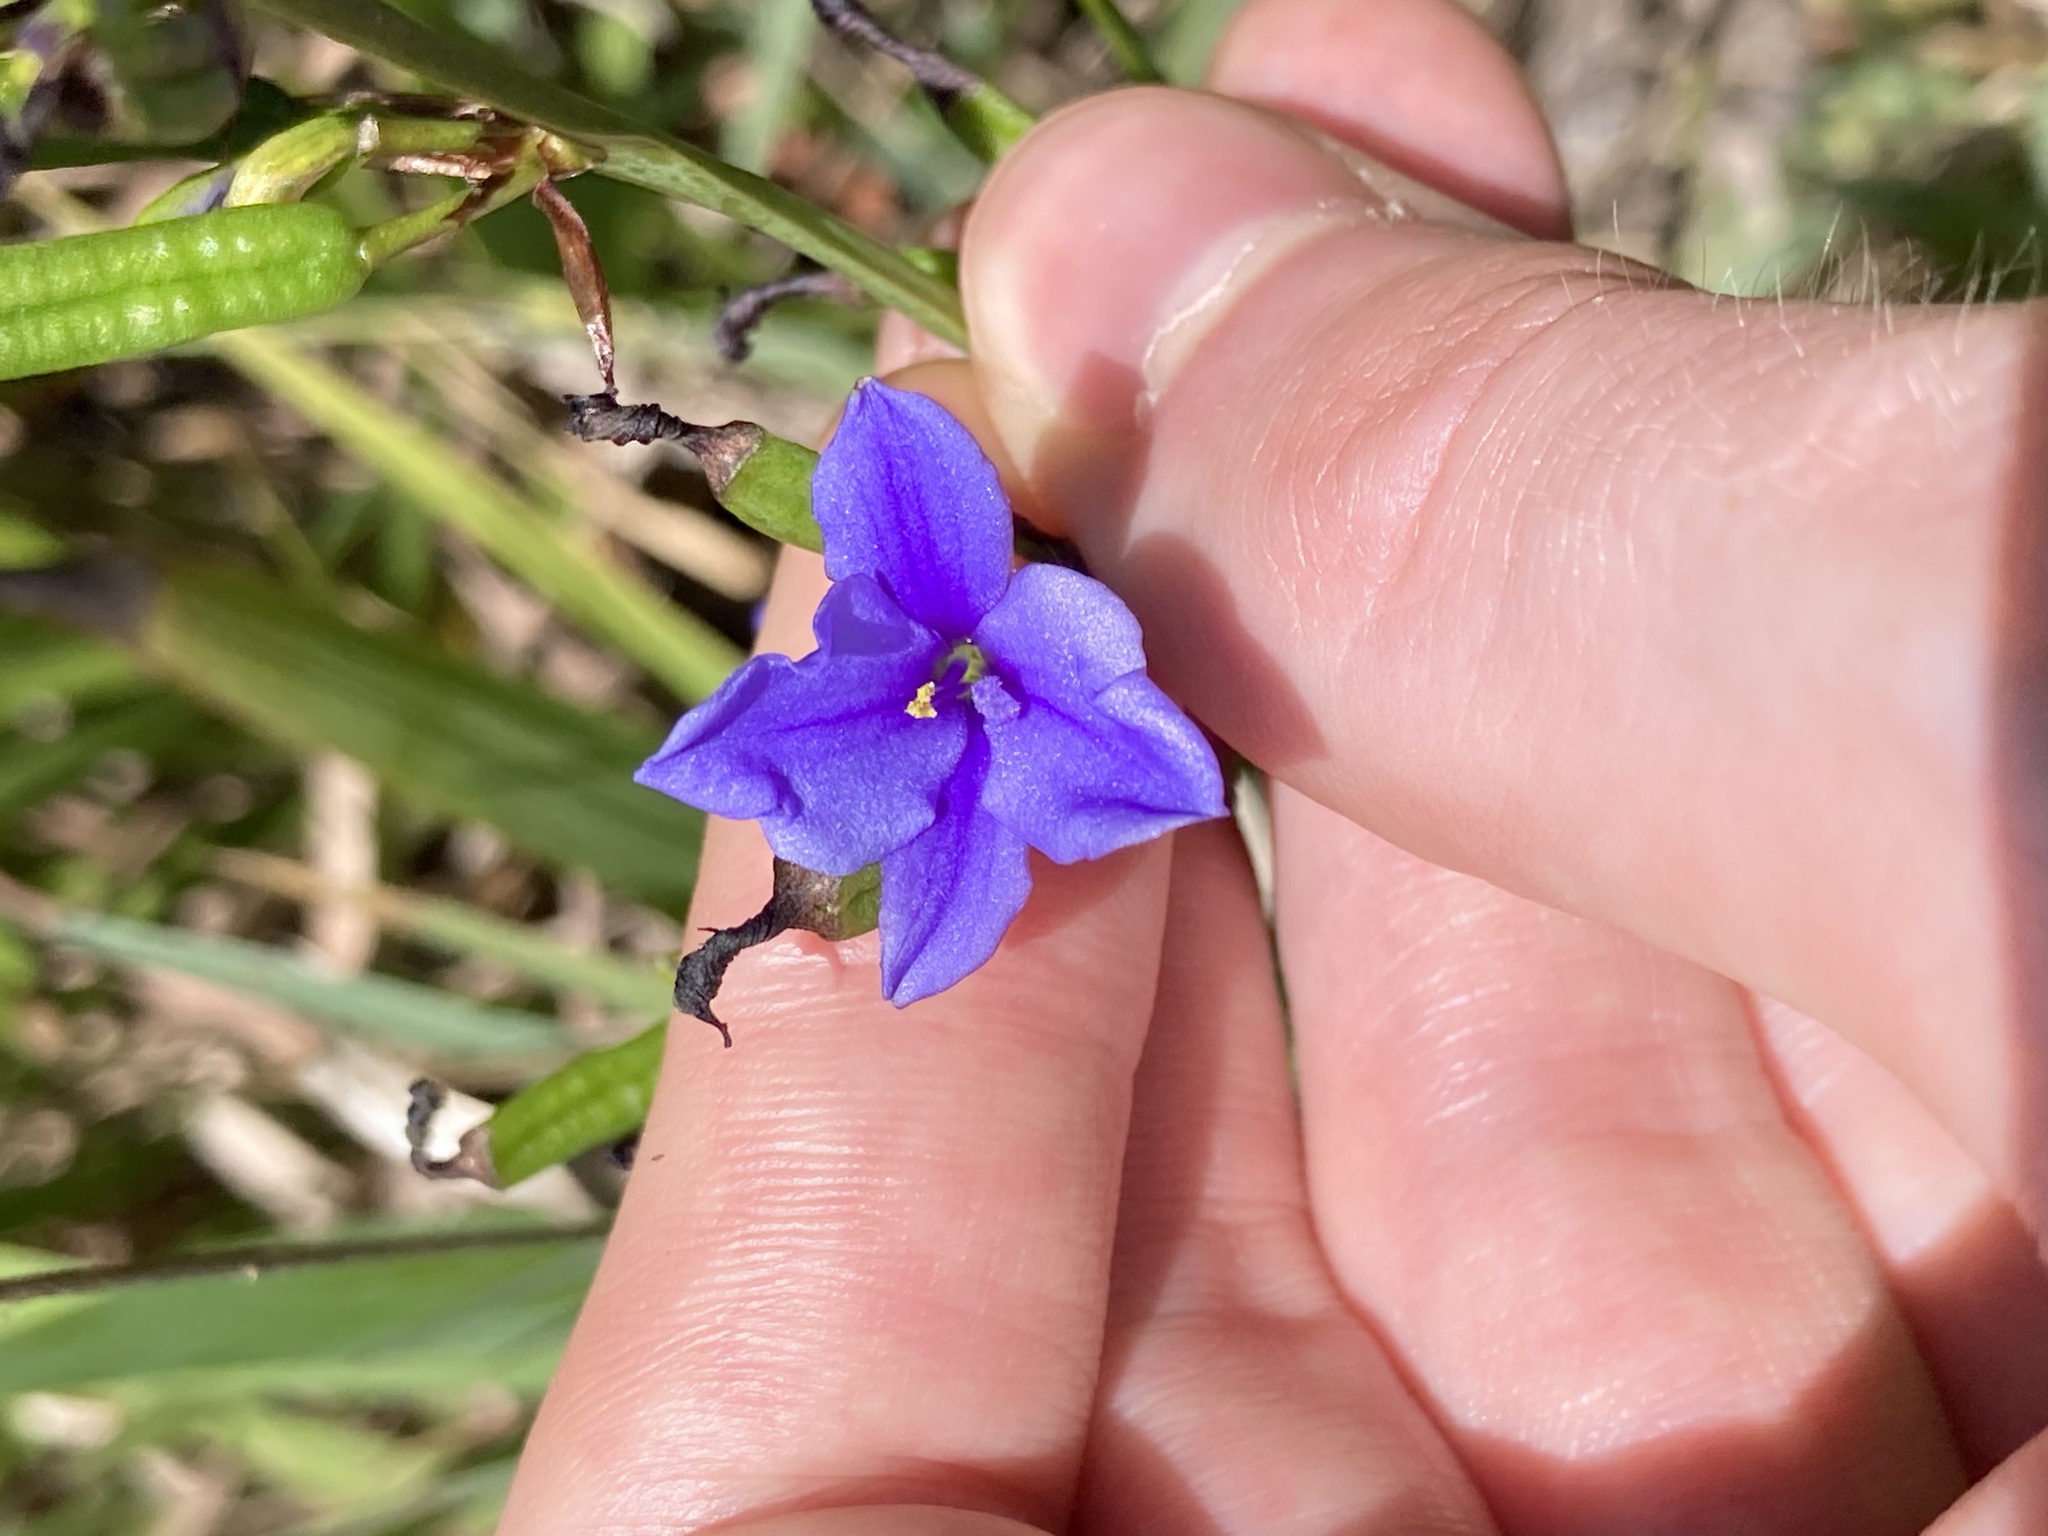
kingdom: Plantae
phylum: Tracheophyta
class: Liliopsida
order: Asparagales
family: Iridaceae
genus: Aristea
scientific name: Aristea ecklonii
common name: Blue corn-lily
